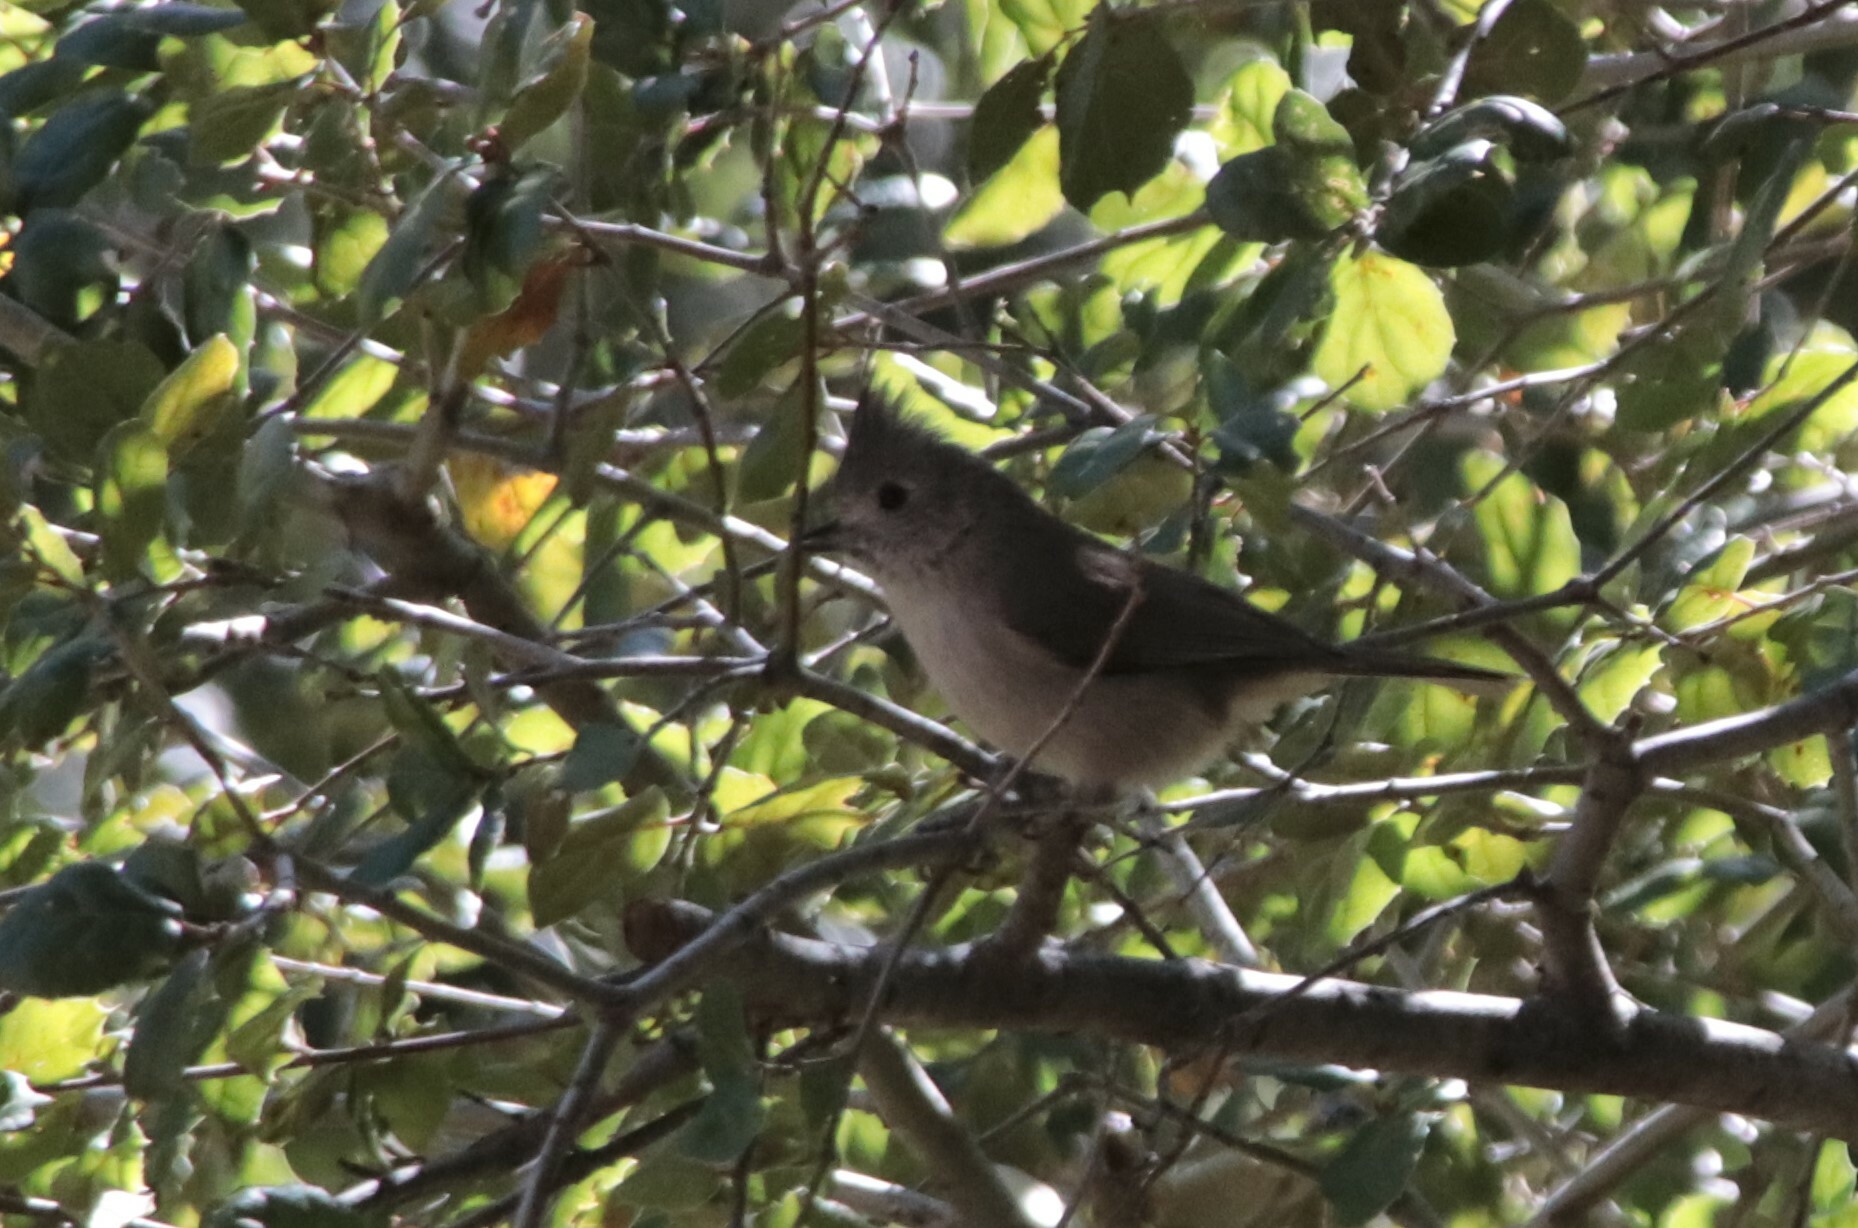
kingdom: Animalia
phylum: Chordata
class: Aves
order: Passeriformes
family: Paridae
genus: Baeolophus
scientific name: Baeolophus inornatus
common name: Oak titmouse
